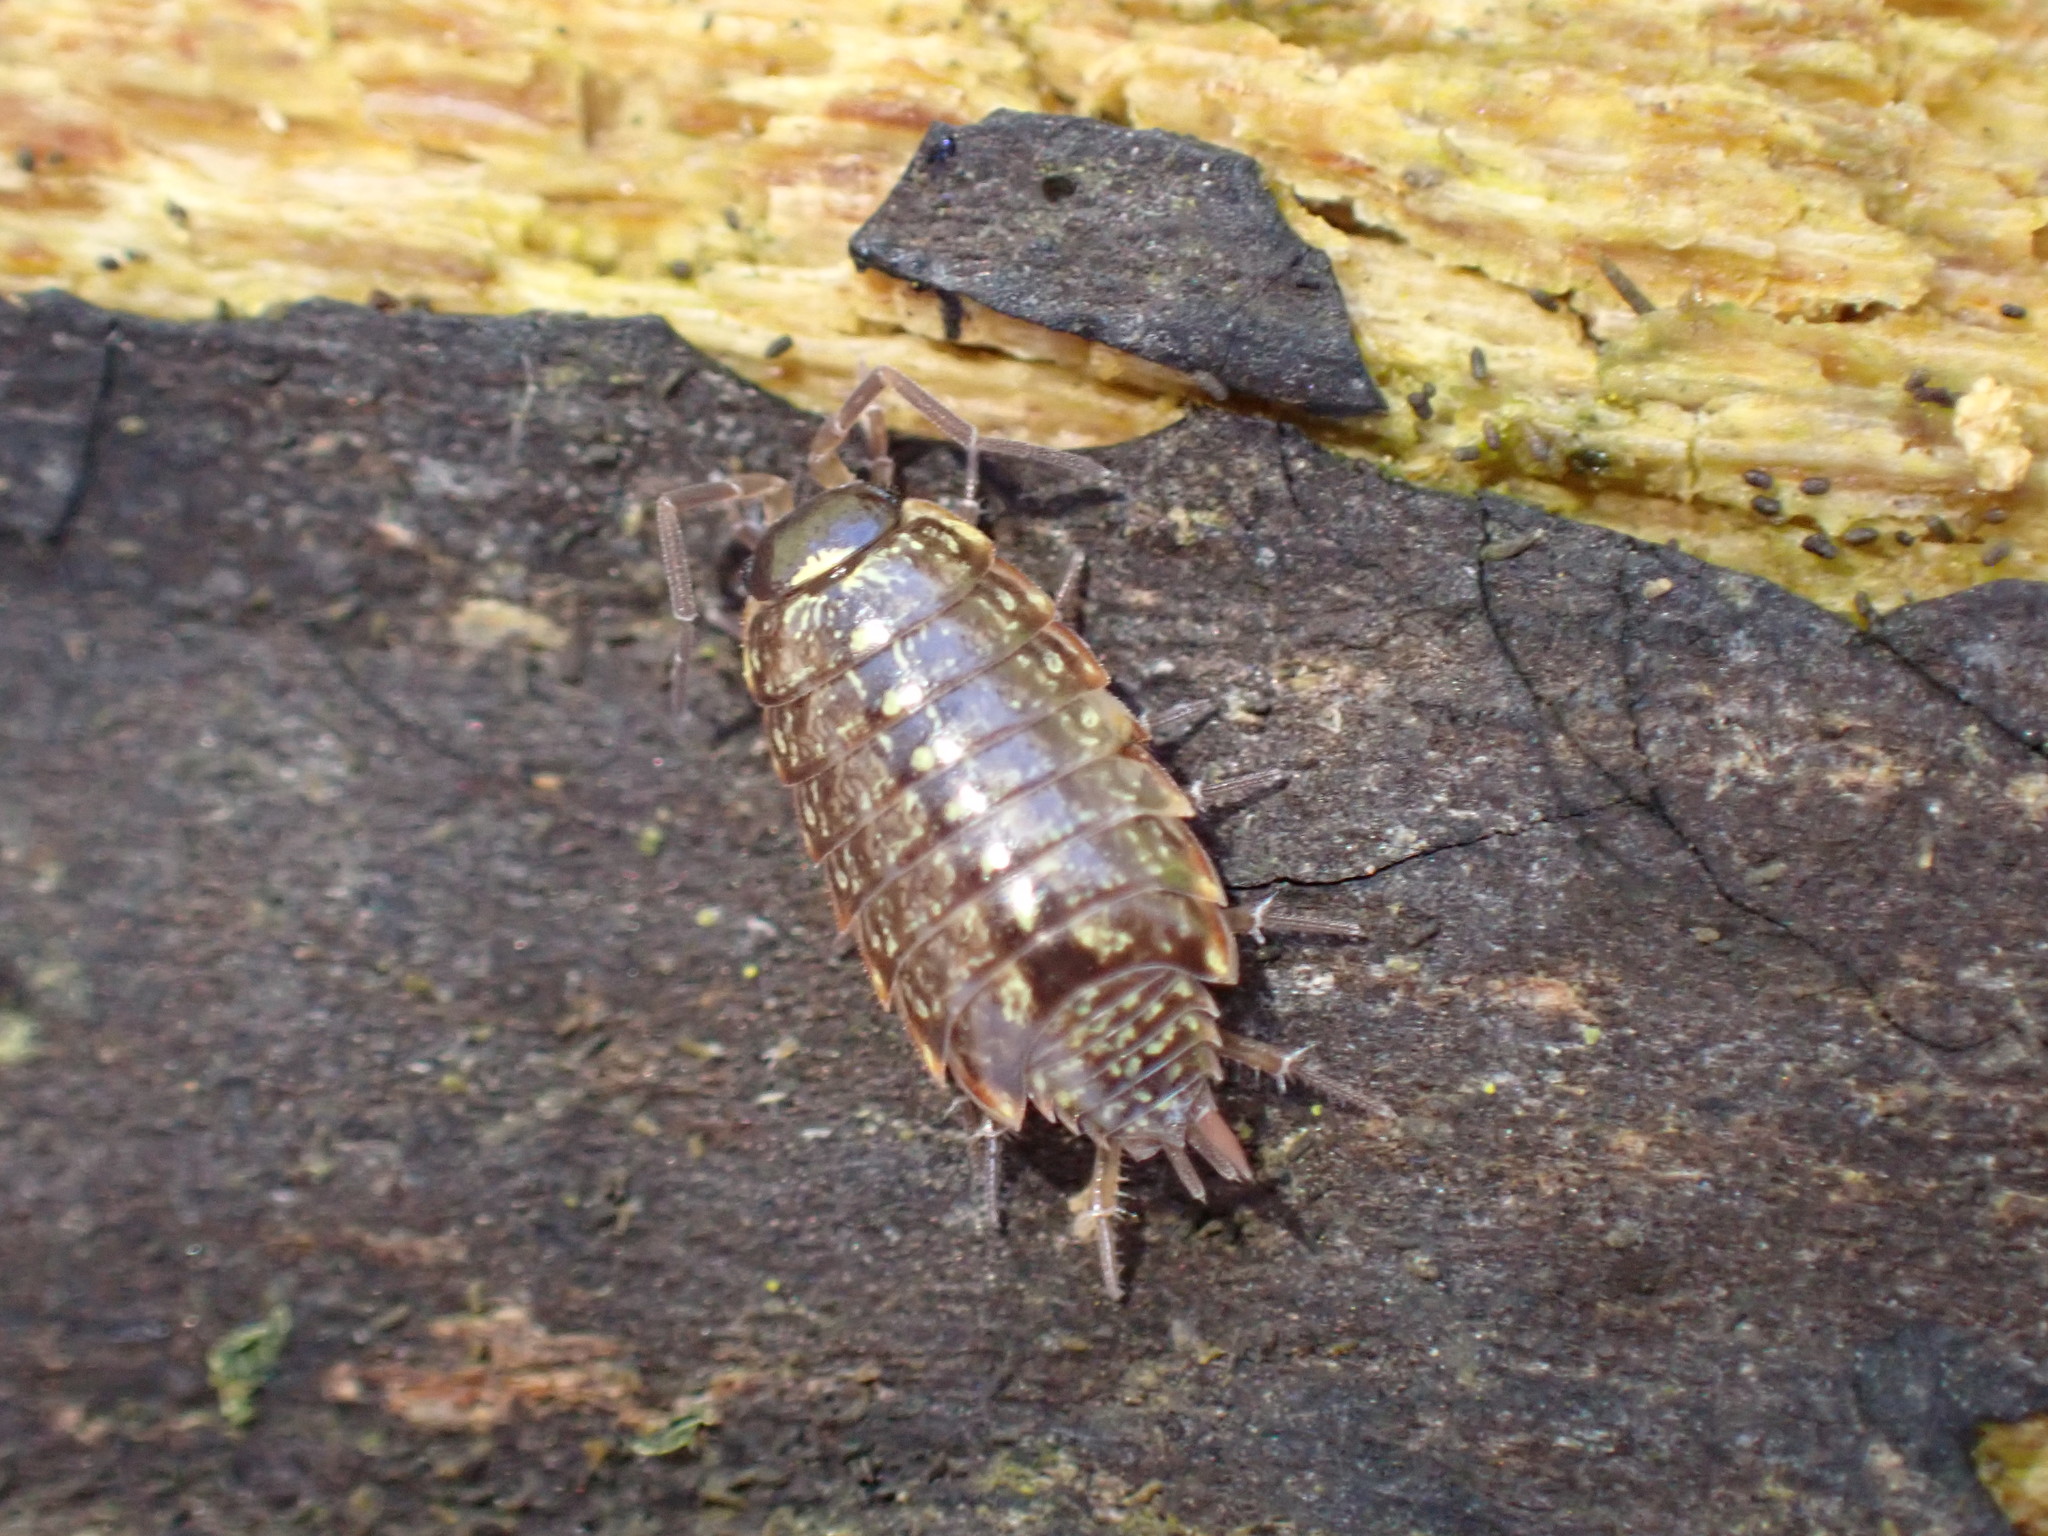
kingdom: Animalia
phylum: Arthropoda
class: Malacostraca
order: Isopoda
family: Philosciidae
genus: Philoscia
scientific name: Philoscia muscorum
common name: Common striped woodlouse
